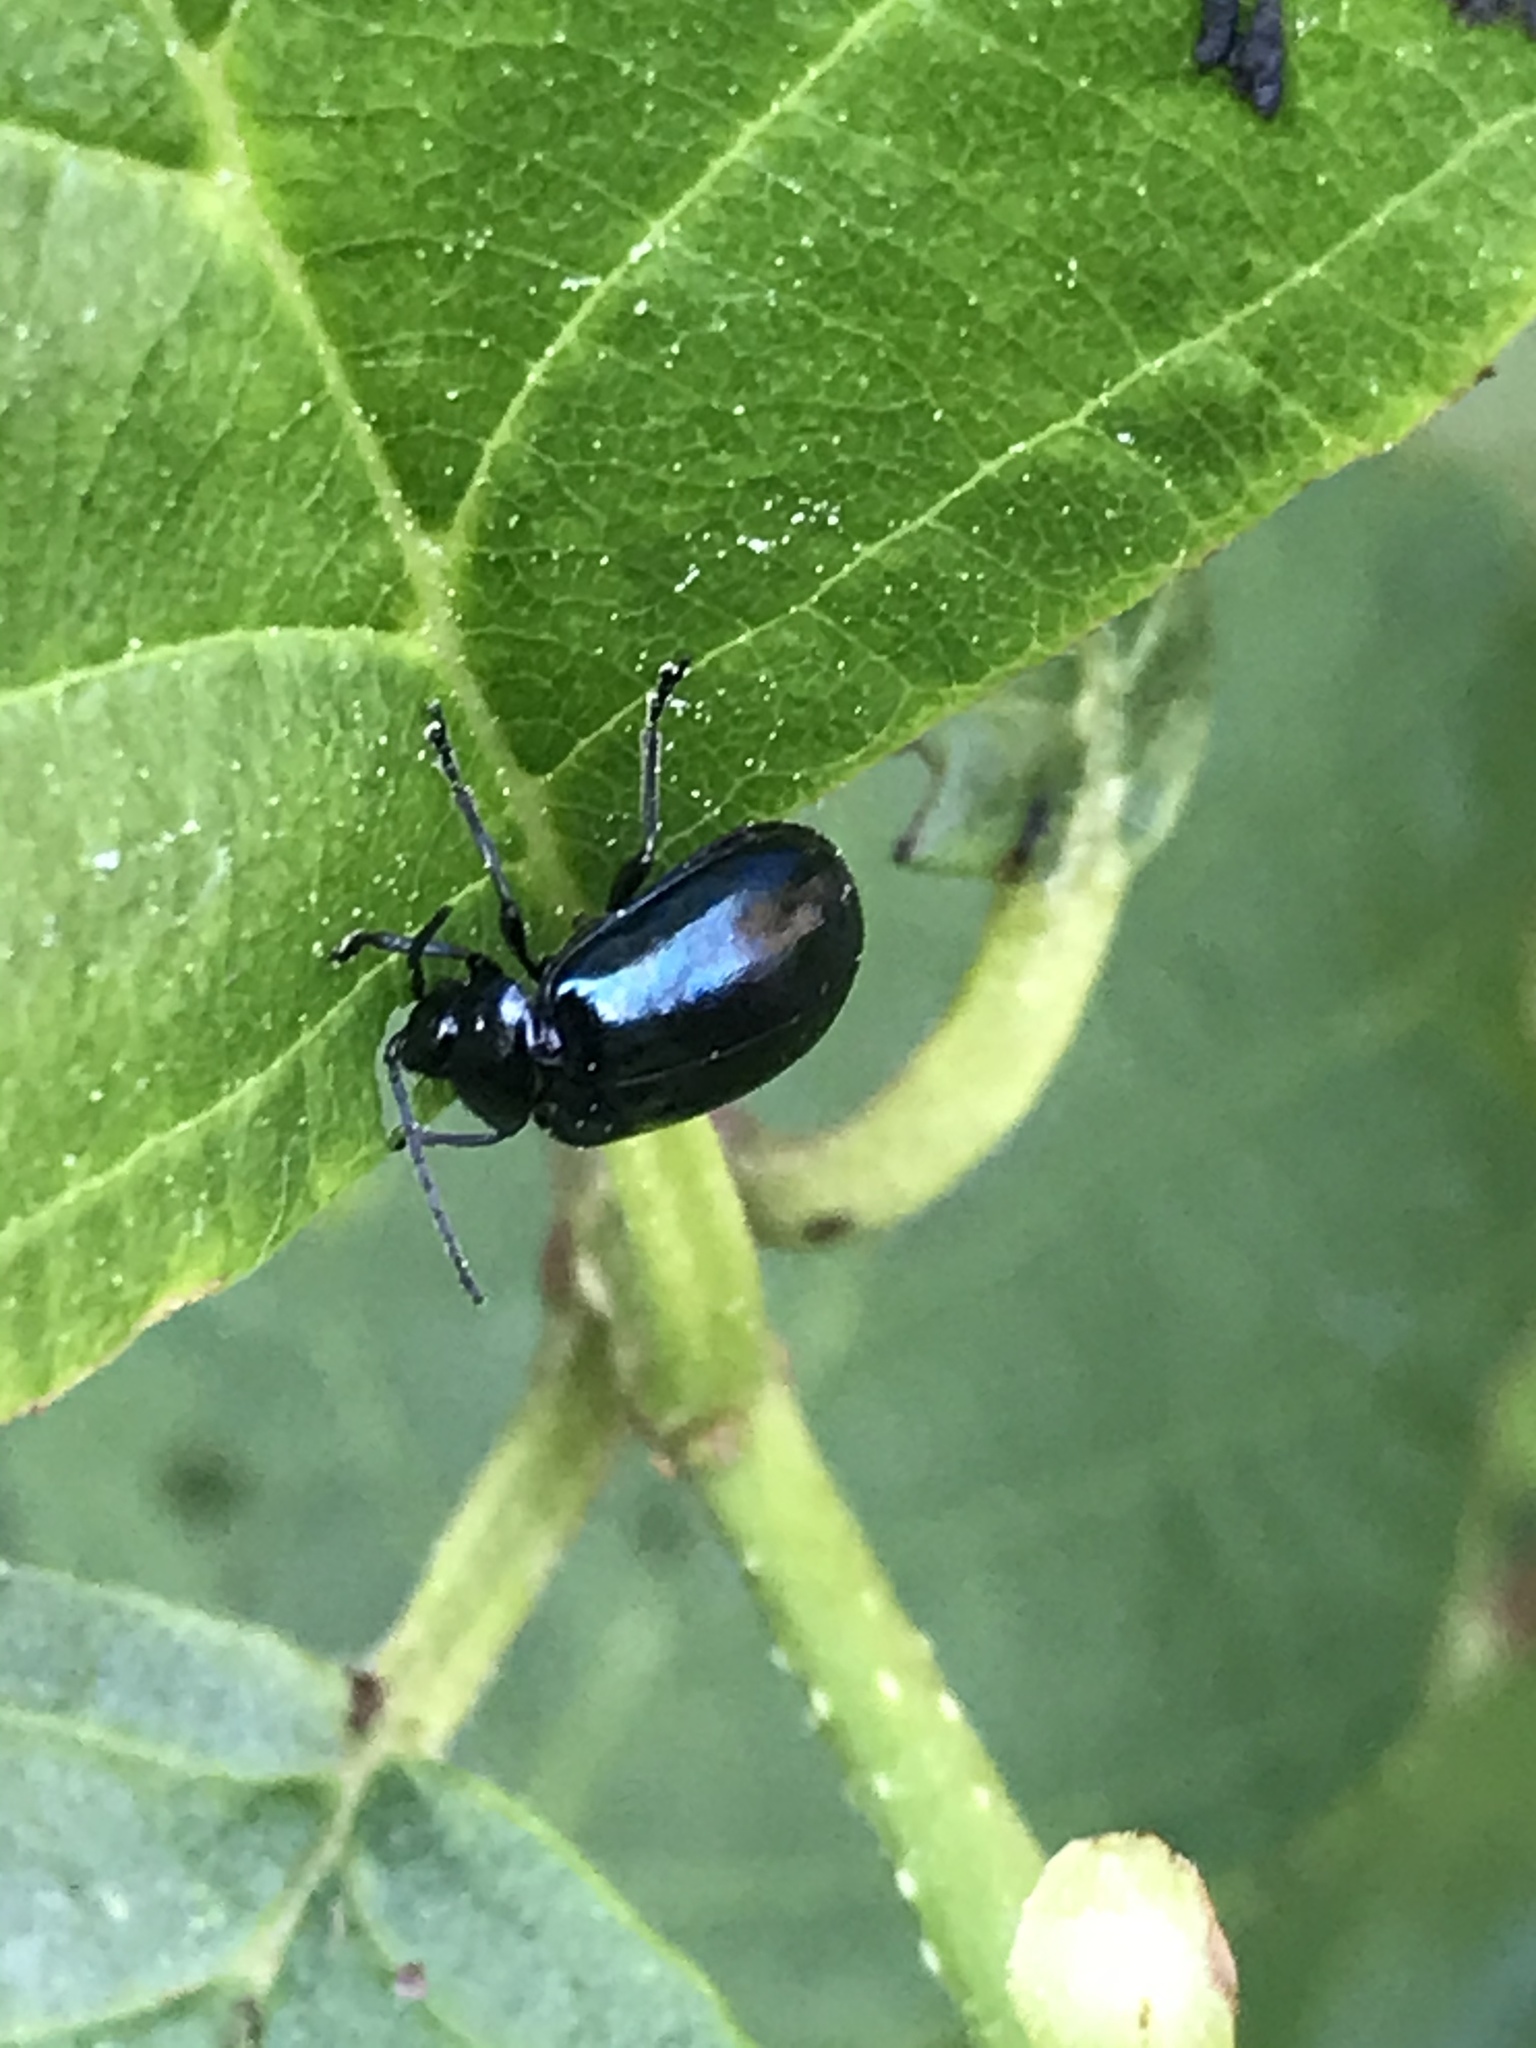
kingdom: Animalia
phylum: Arthropoda
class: Insecta
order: Coleoptera
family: Chrysomelidae
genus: Agelastica
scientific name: Agelastica alni
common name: Alder leaf beetle
